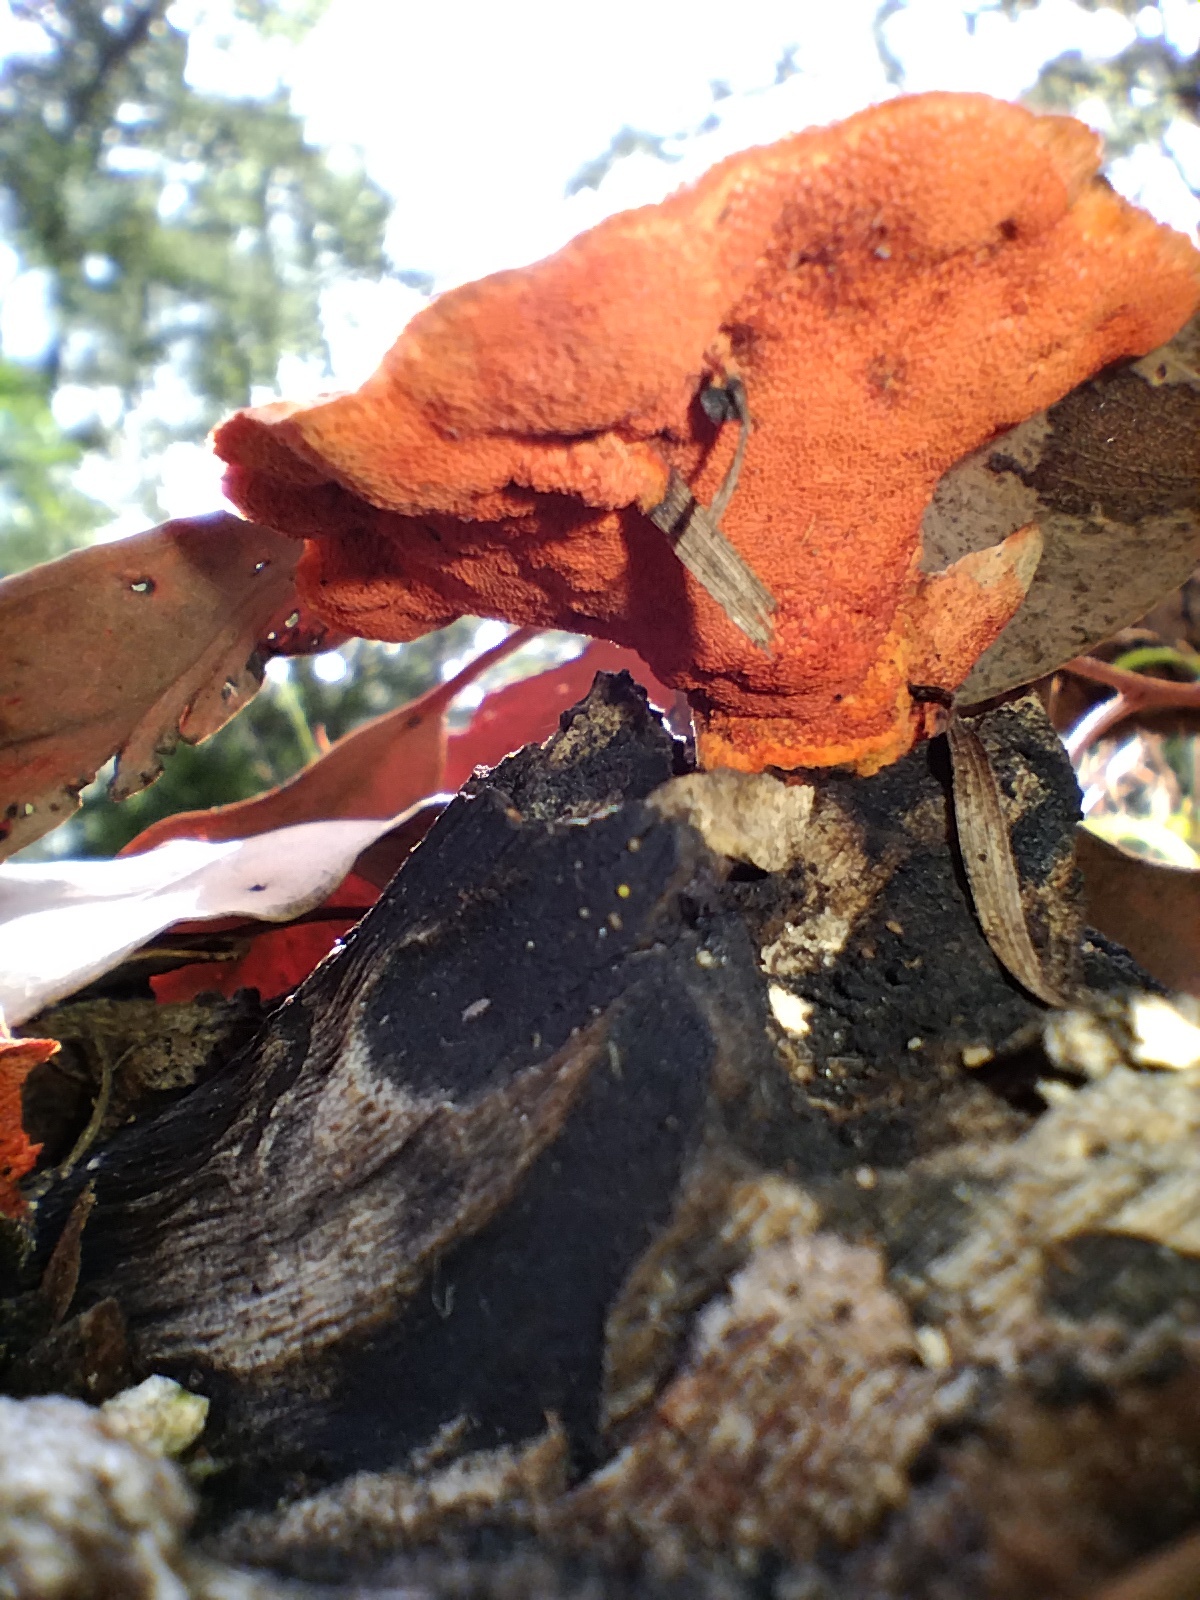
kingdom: Fungi
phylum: Basidiomycota
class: Agaricomycetes
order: Polyporales
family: Polyporaceae
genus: Trametes
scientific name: Trametes coccinea
